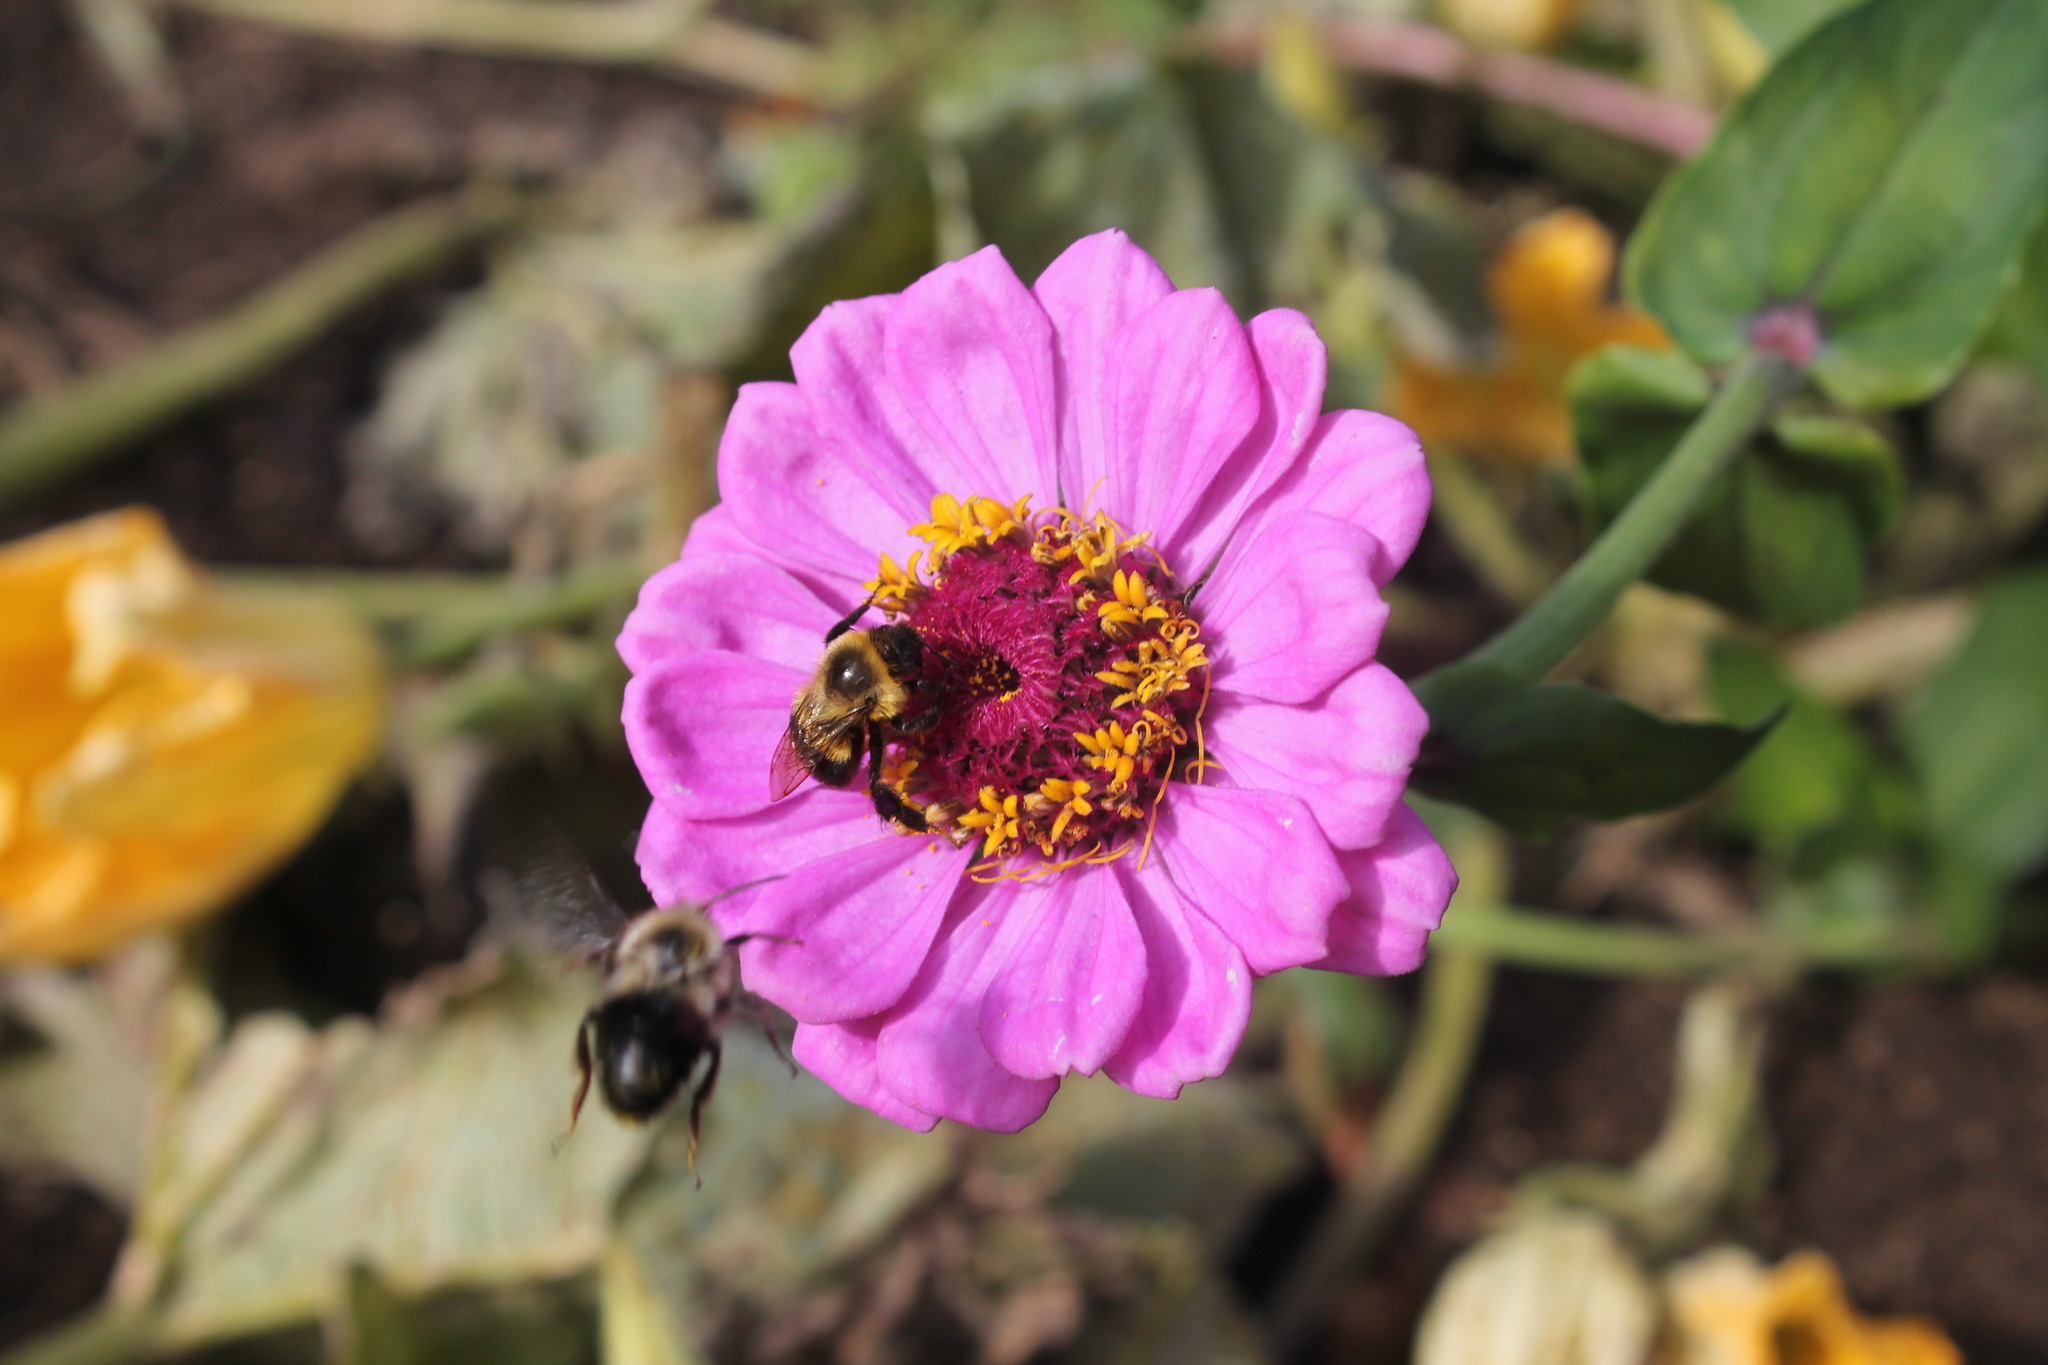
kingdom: Animalia
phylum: Arthropoda
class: Insecta
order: Hymenoptera
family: Apidae
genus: Bombus
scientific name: Bombus impatiens
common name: Common eastern bumble bee
